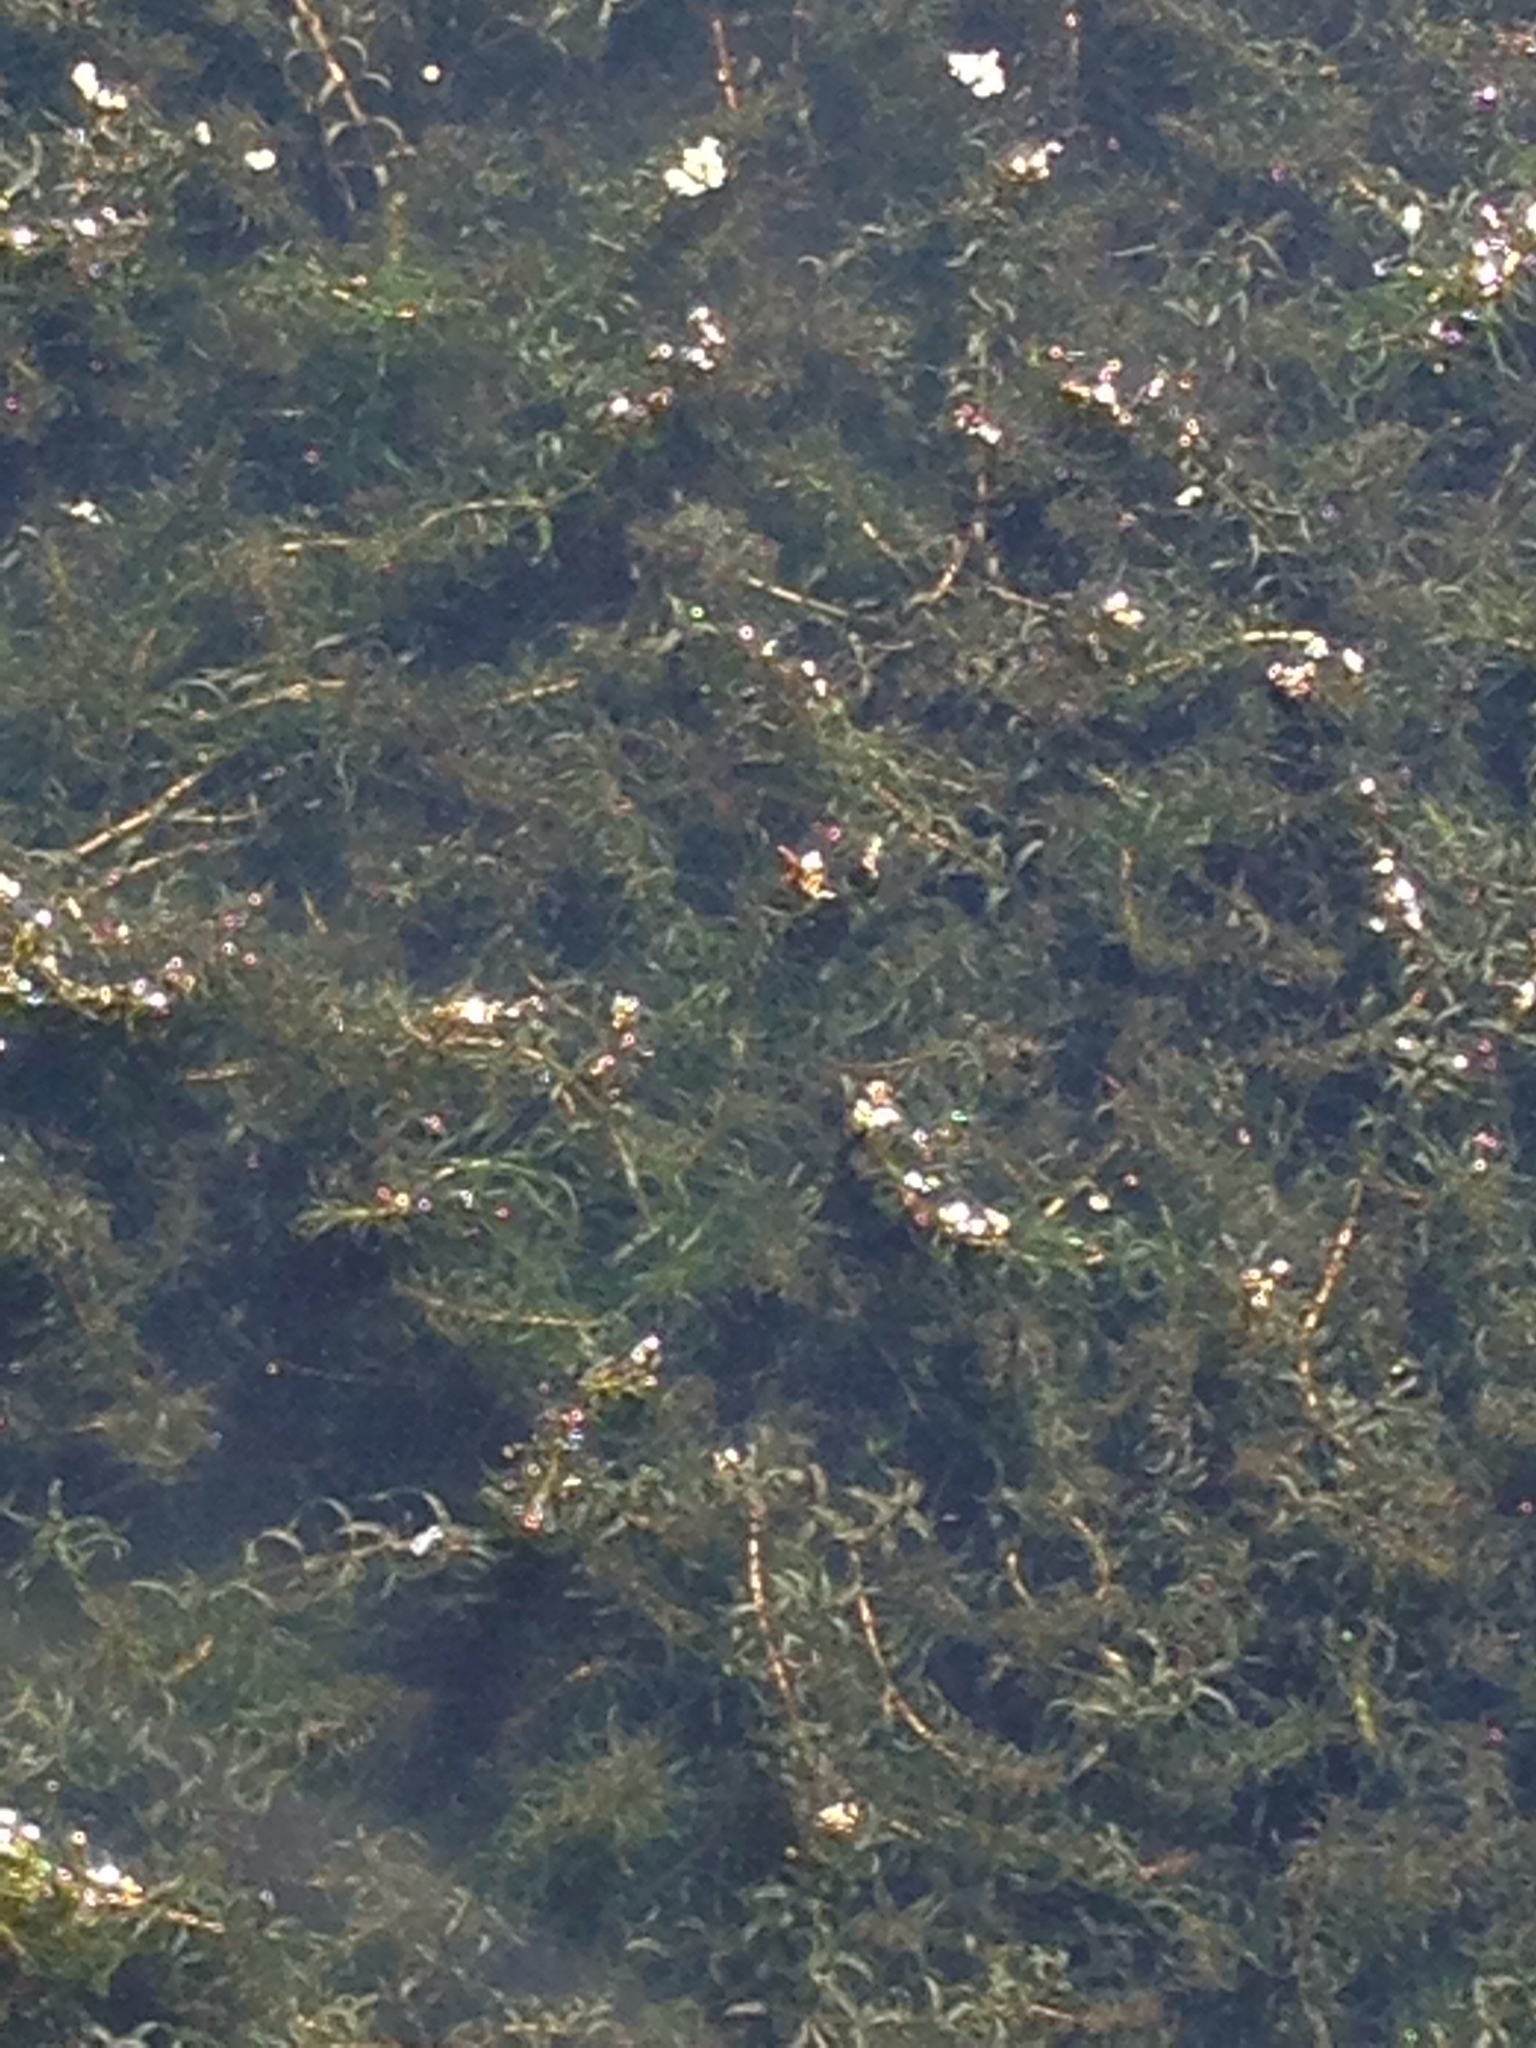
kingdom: Plantae
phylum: Tracheophyta
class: Liliopsida
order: Alismatales
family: Hydrocharitaceae
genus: Elodea
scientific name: Elodea nuttallii
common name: Nuttall's waterweed
